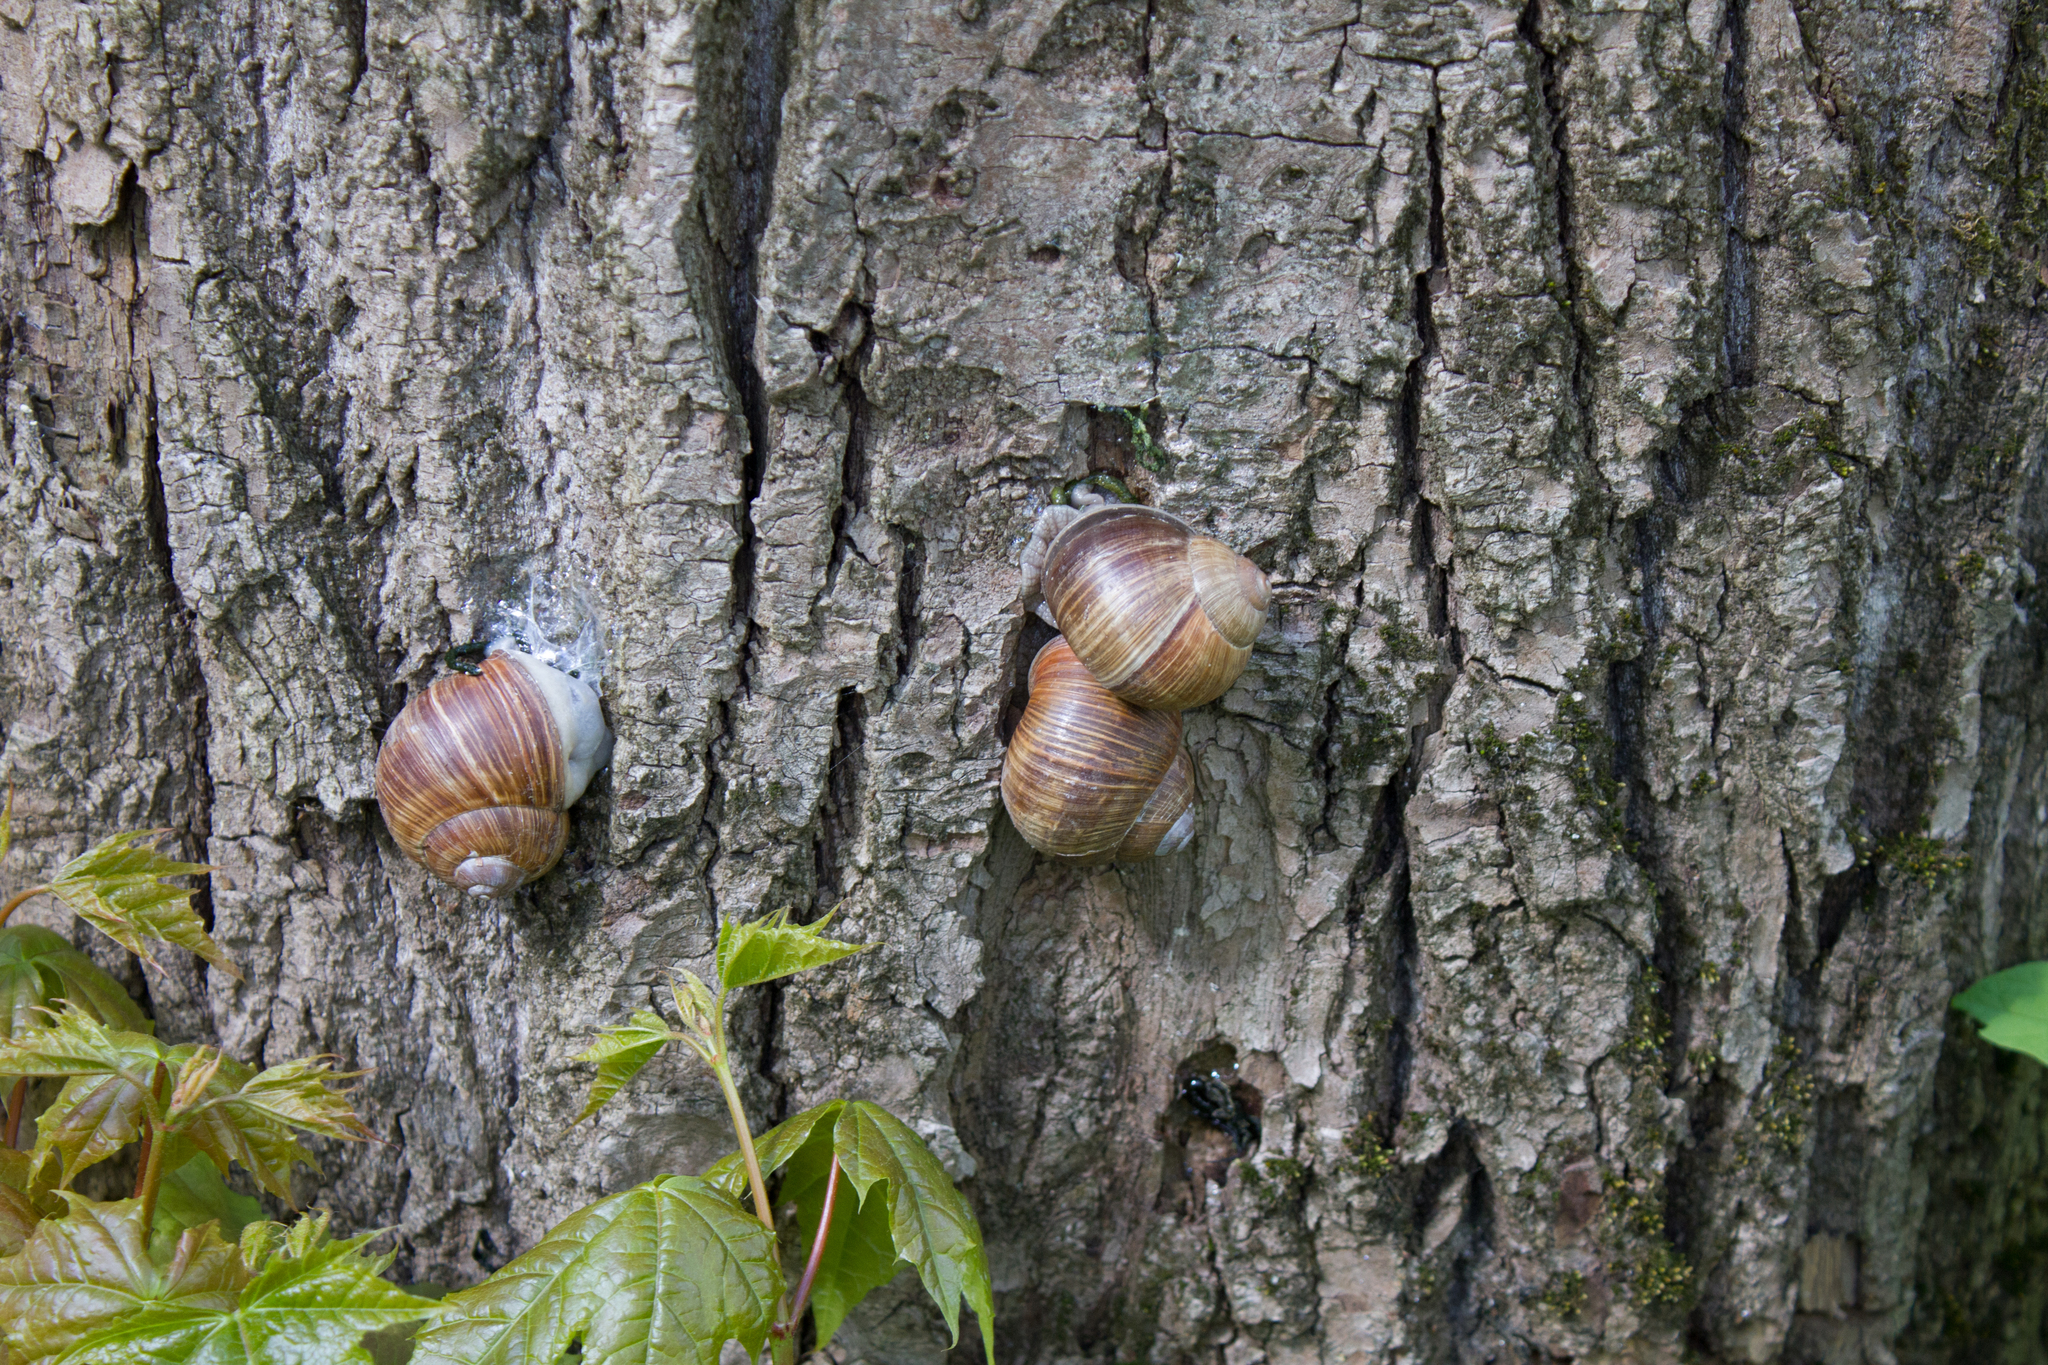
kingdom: Animalia
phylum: Mollusca
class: Gastropoda
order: Stylommatophora
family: Helicidae
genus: Helix
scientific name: Helix pomatia
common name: Roman snail
